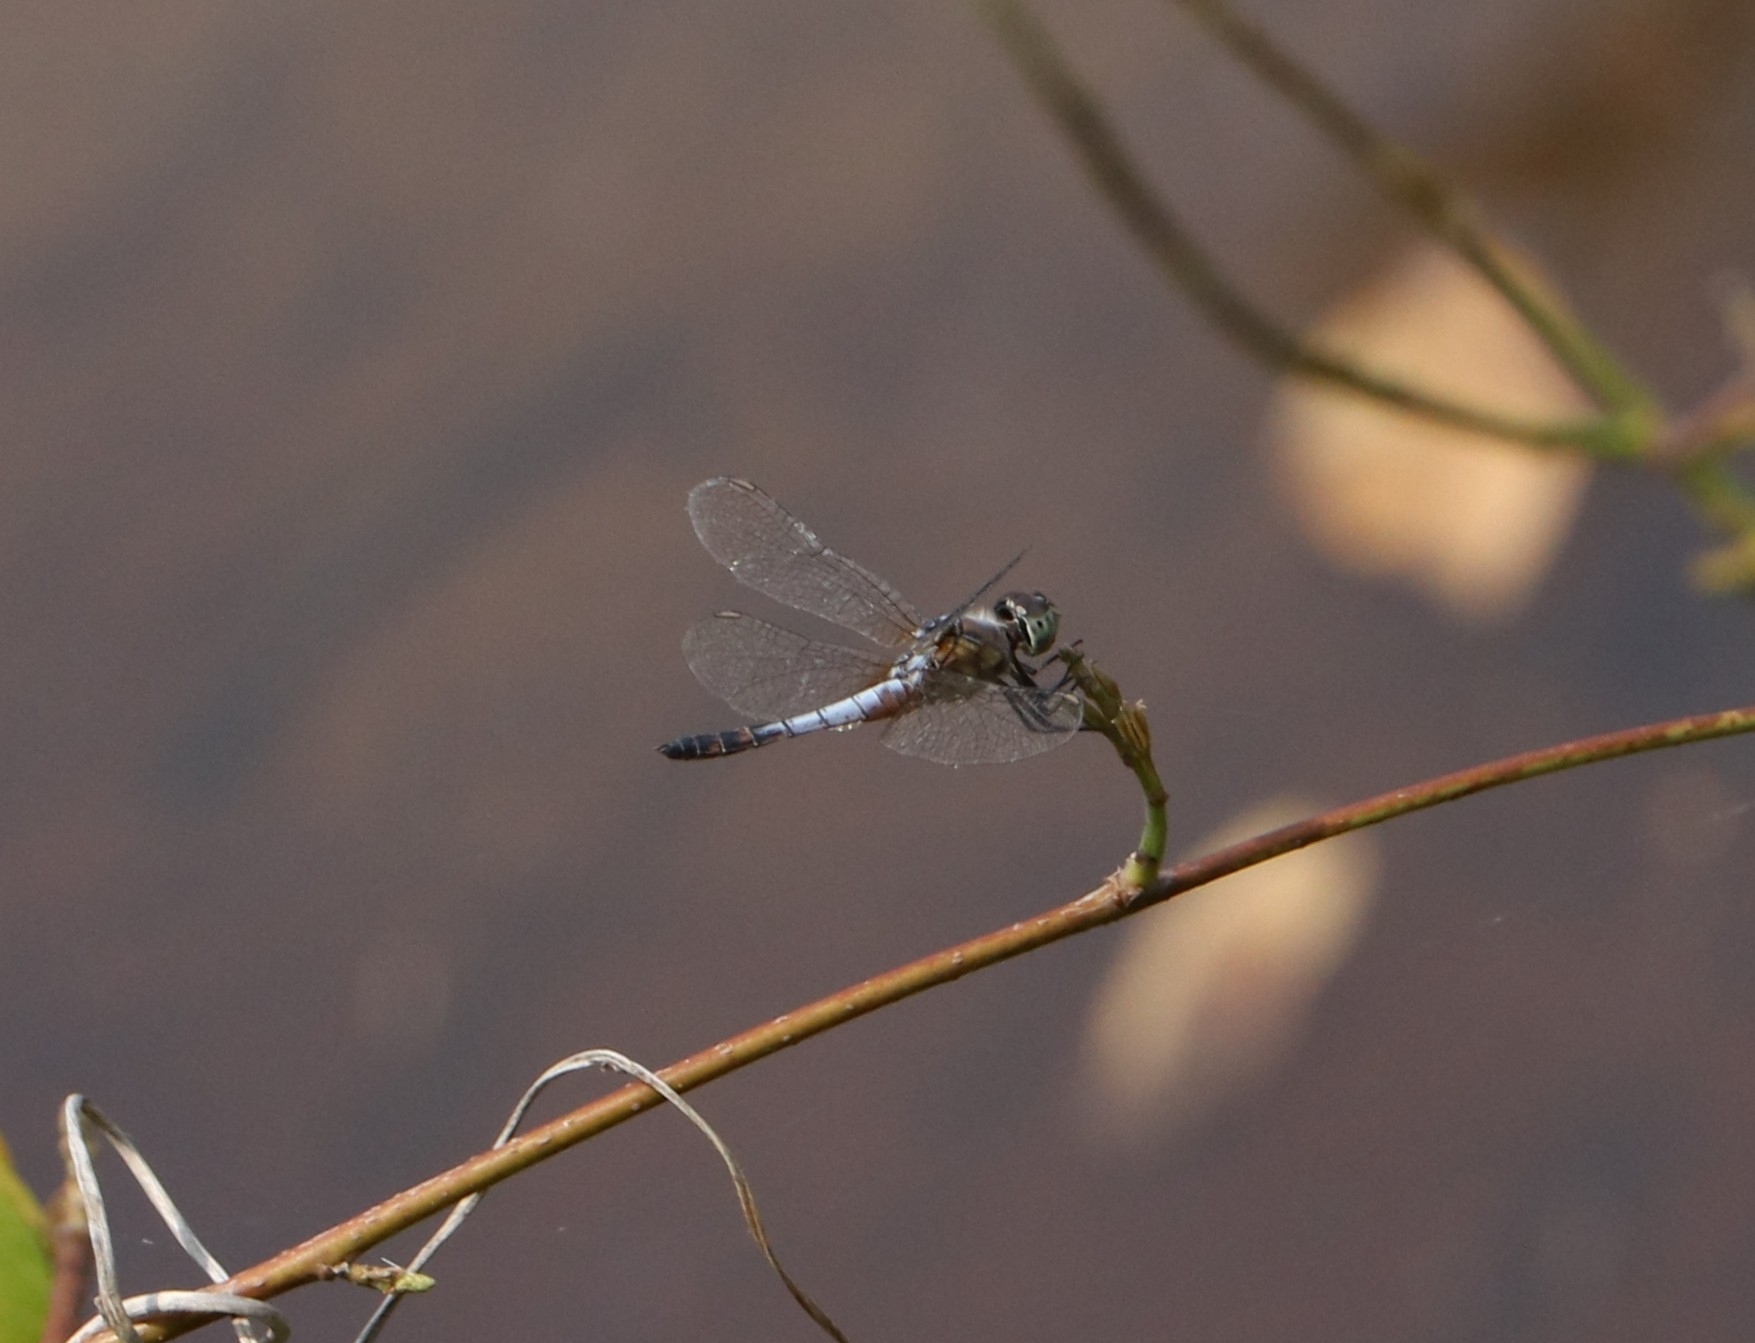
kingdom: Animalia
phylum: Arthropoda
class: Insecta
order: Odonata
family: Libellulidae
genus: Brachydiplax
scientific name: Brachydiplax chalybea
